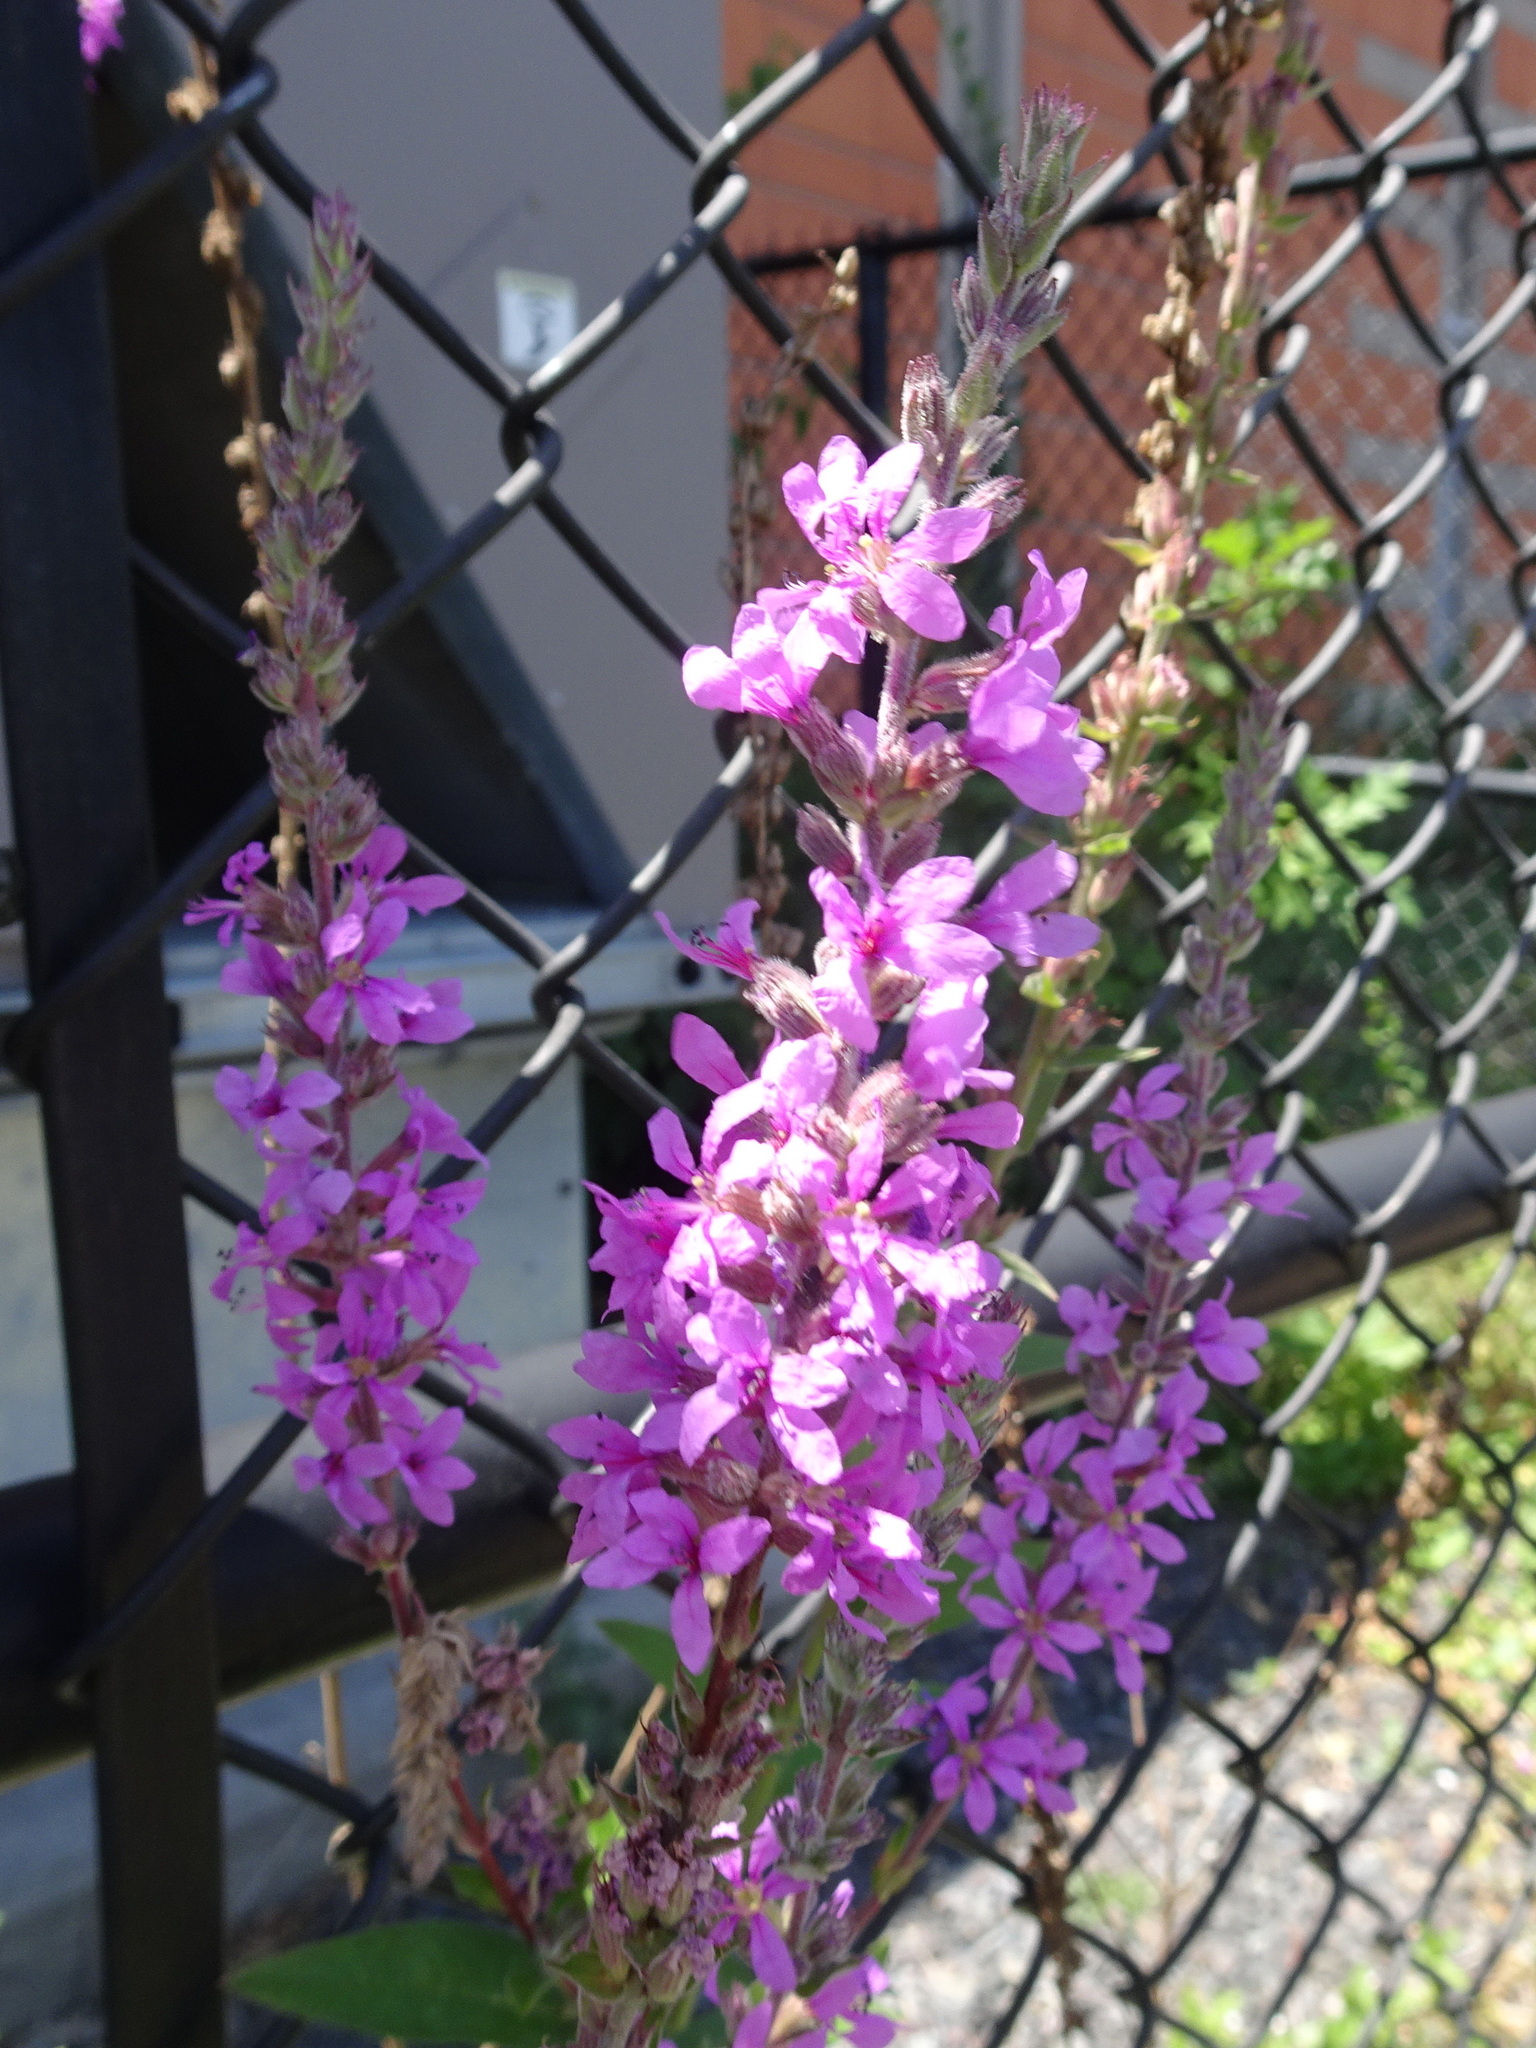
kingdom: Plantae
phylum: Tracheophyta
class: Magnoliopsida
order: Myrtales
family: Lythraceae
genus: Lythrum
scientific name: Lythrum salicaria
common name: Purple loosestrife
